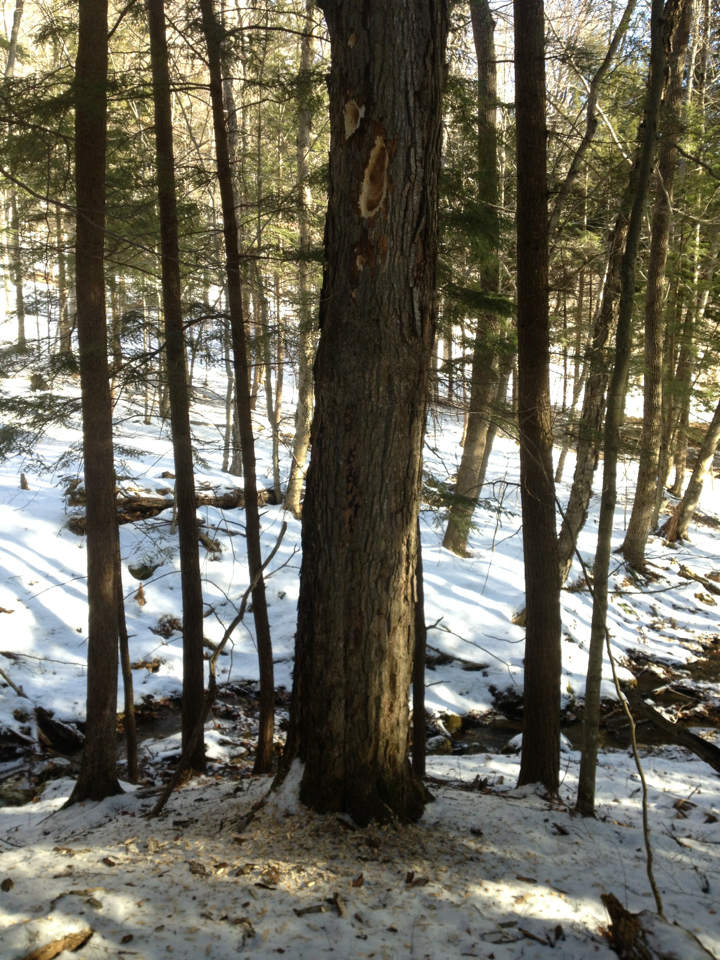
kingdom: Animalia
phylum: Chordata
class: Aves
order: Piciformes
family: Picidae
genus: Dryocopus
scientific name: Dryocopus pileatus
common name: Pileated woodpecker
